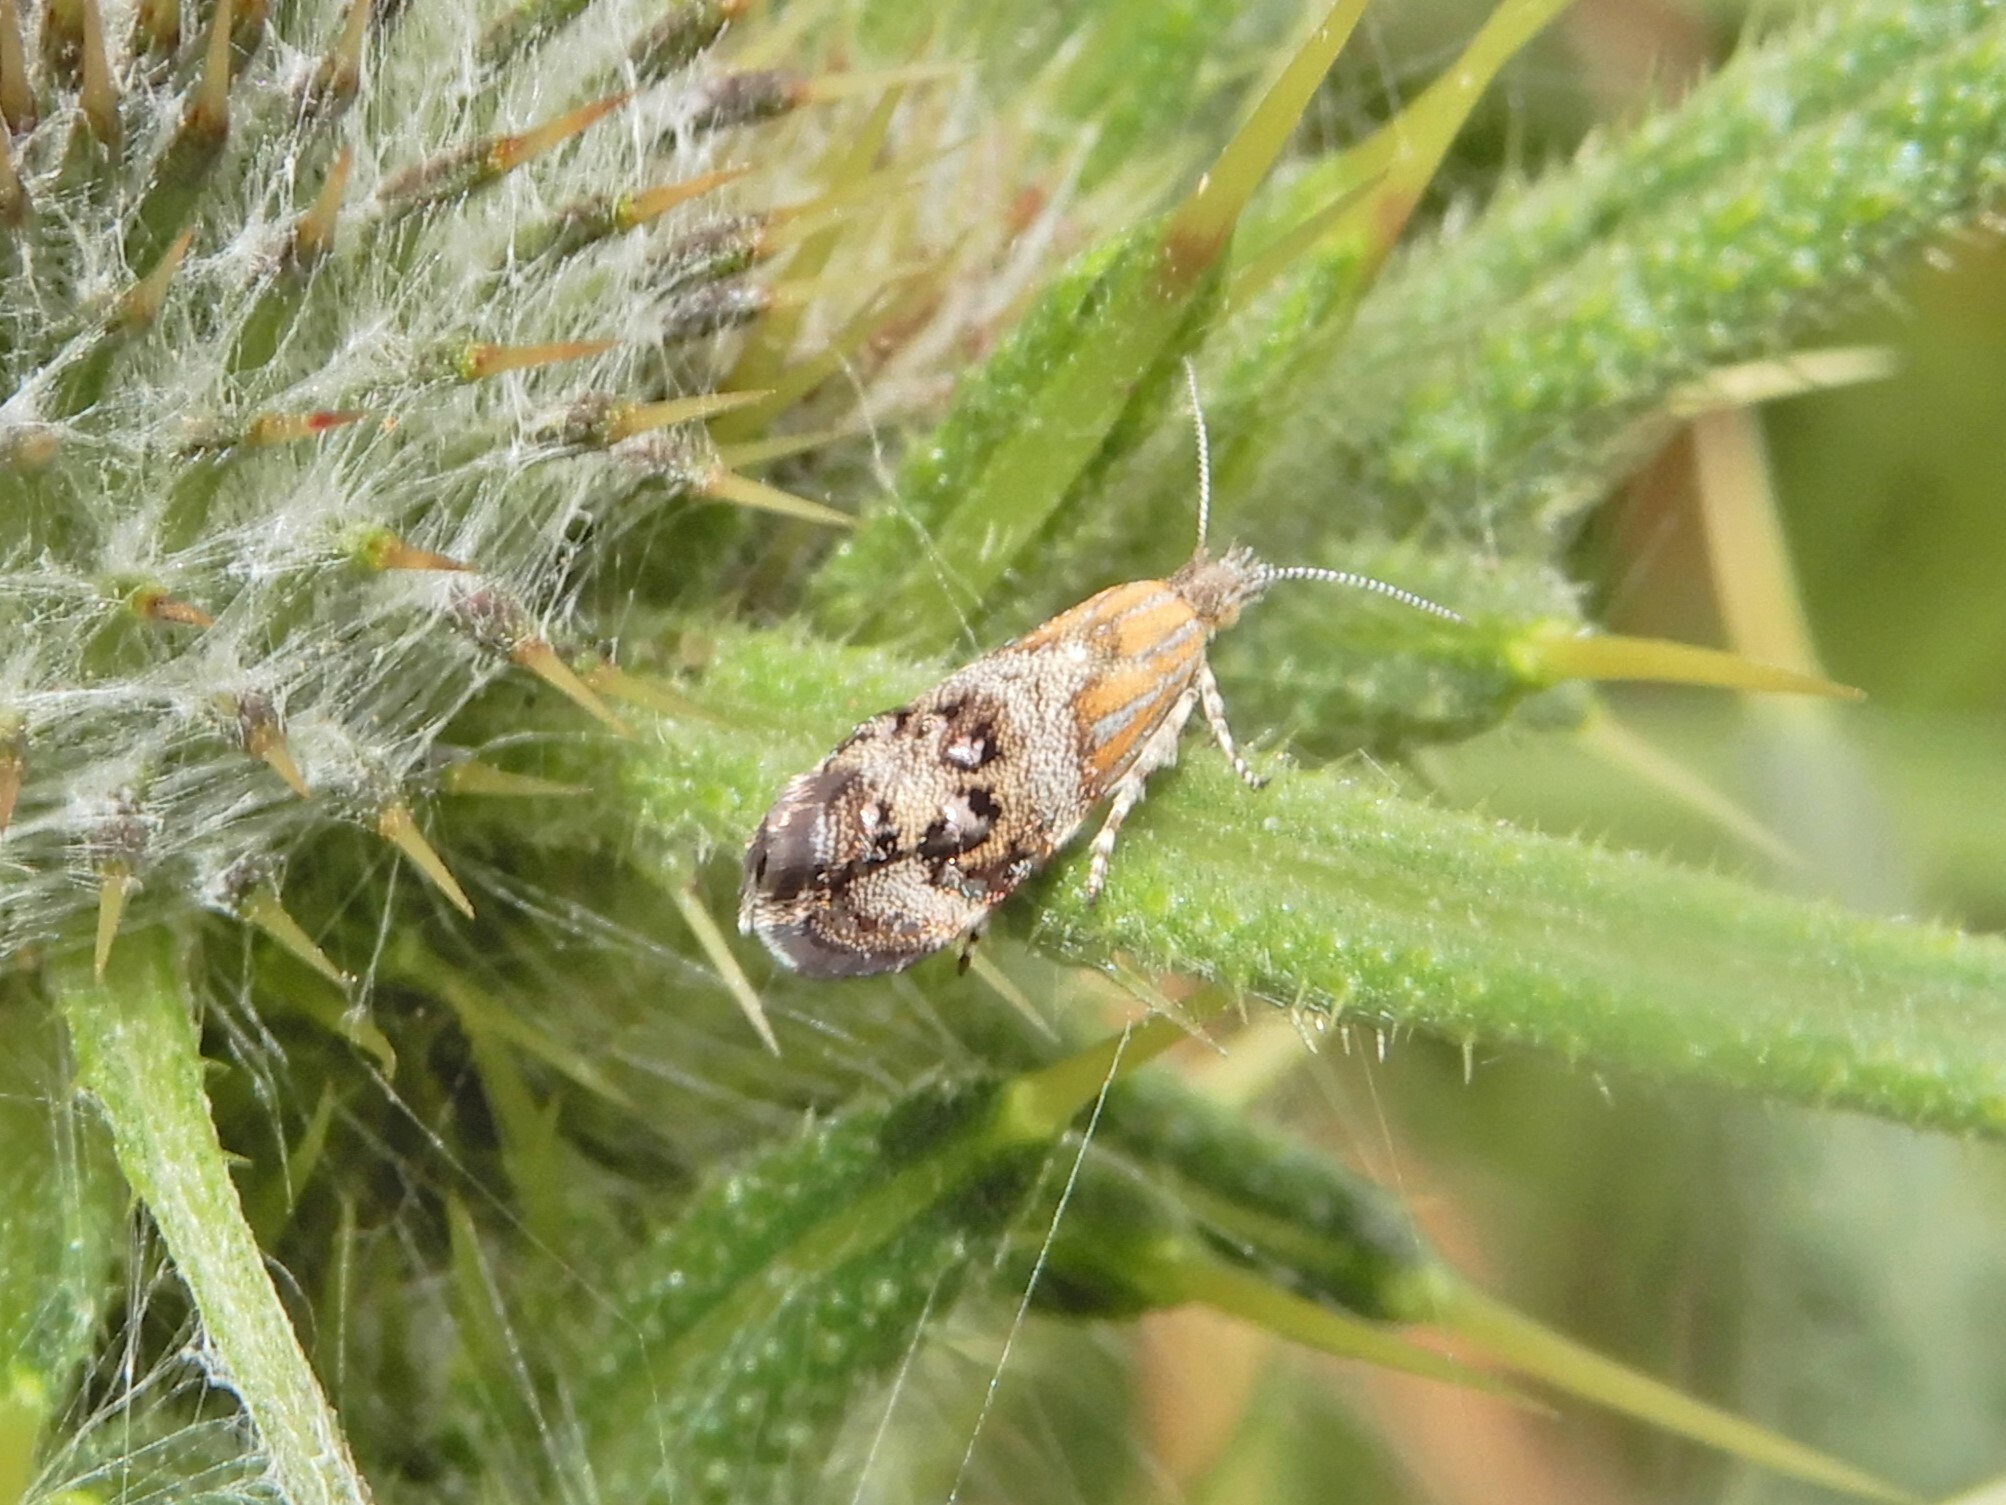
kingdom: Animalia
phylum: Arthropoda
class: Insecta
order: Lepidoptera
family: Choreutidae
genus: Tebenna
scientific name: Tebenna micalis
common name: Vagrant twitcher
